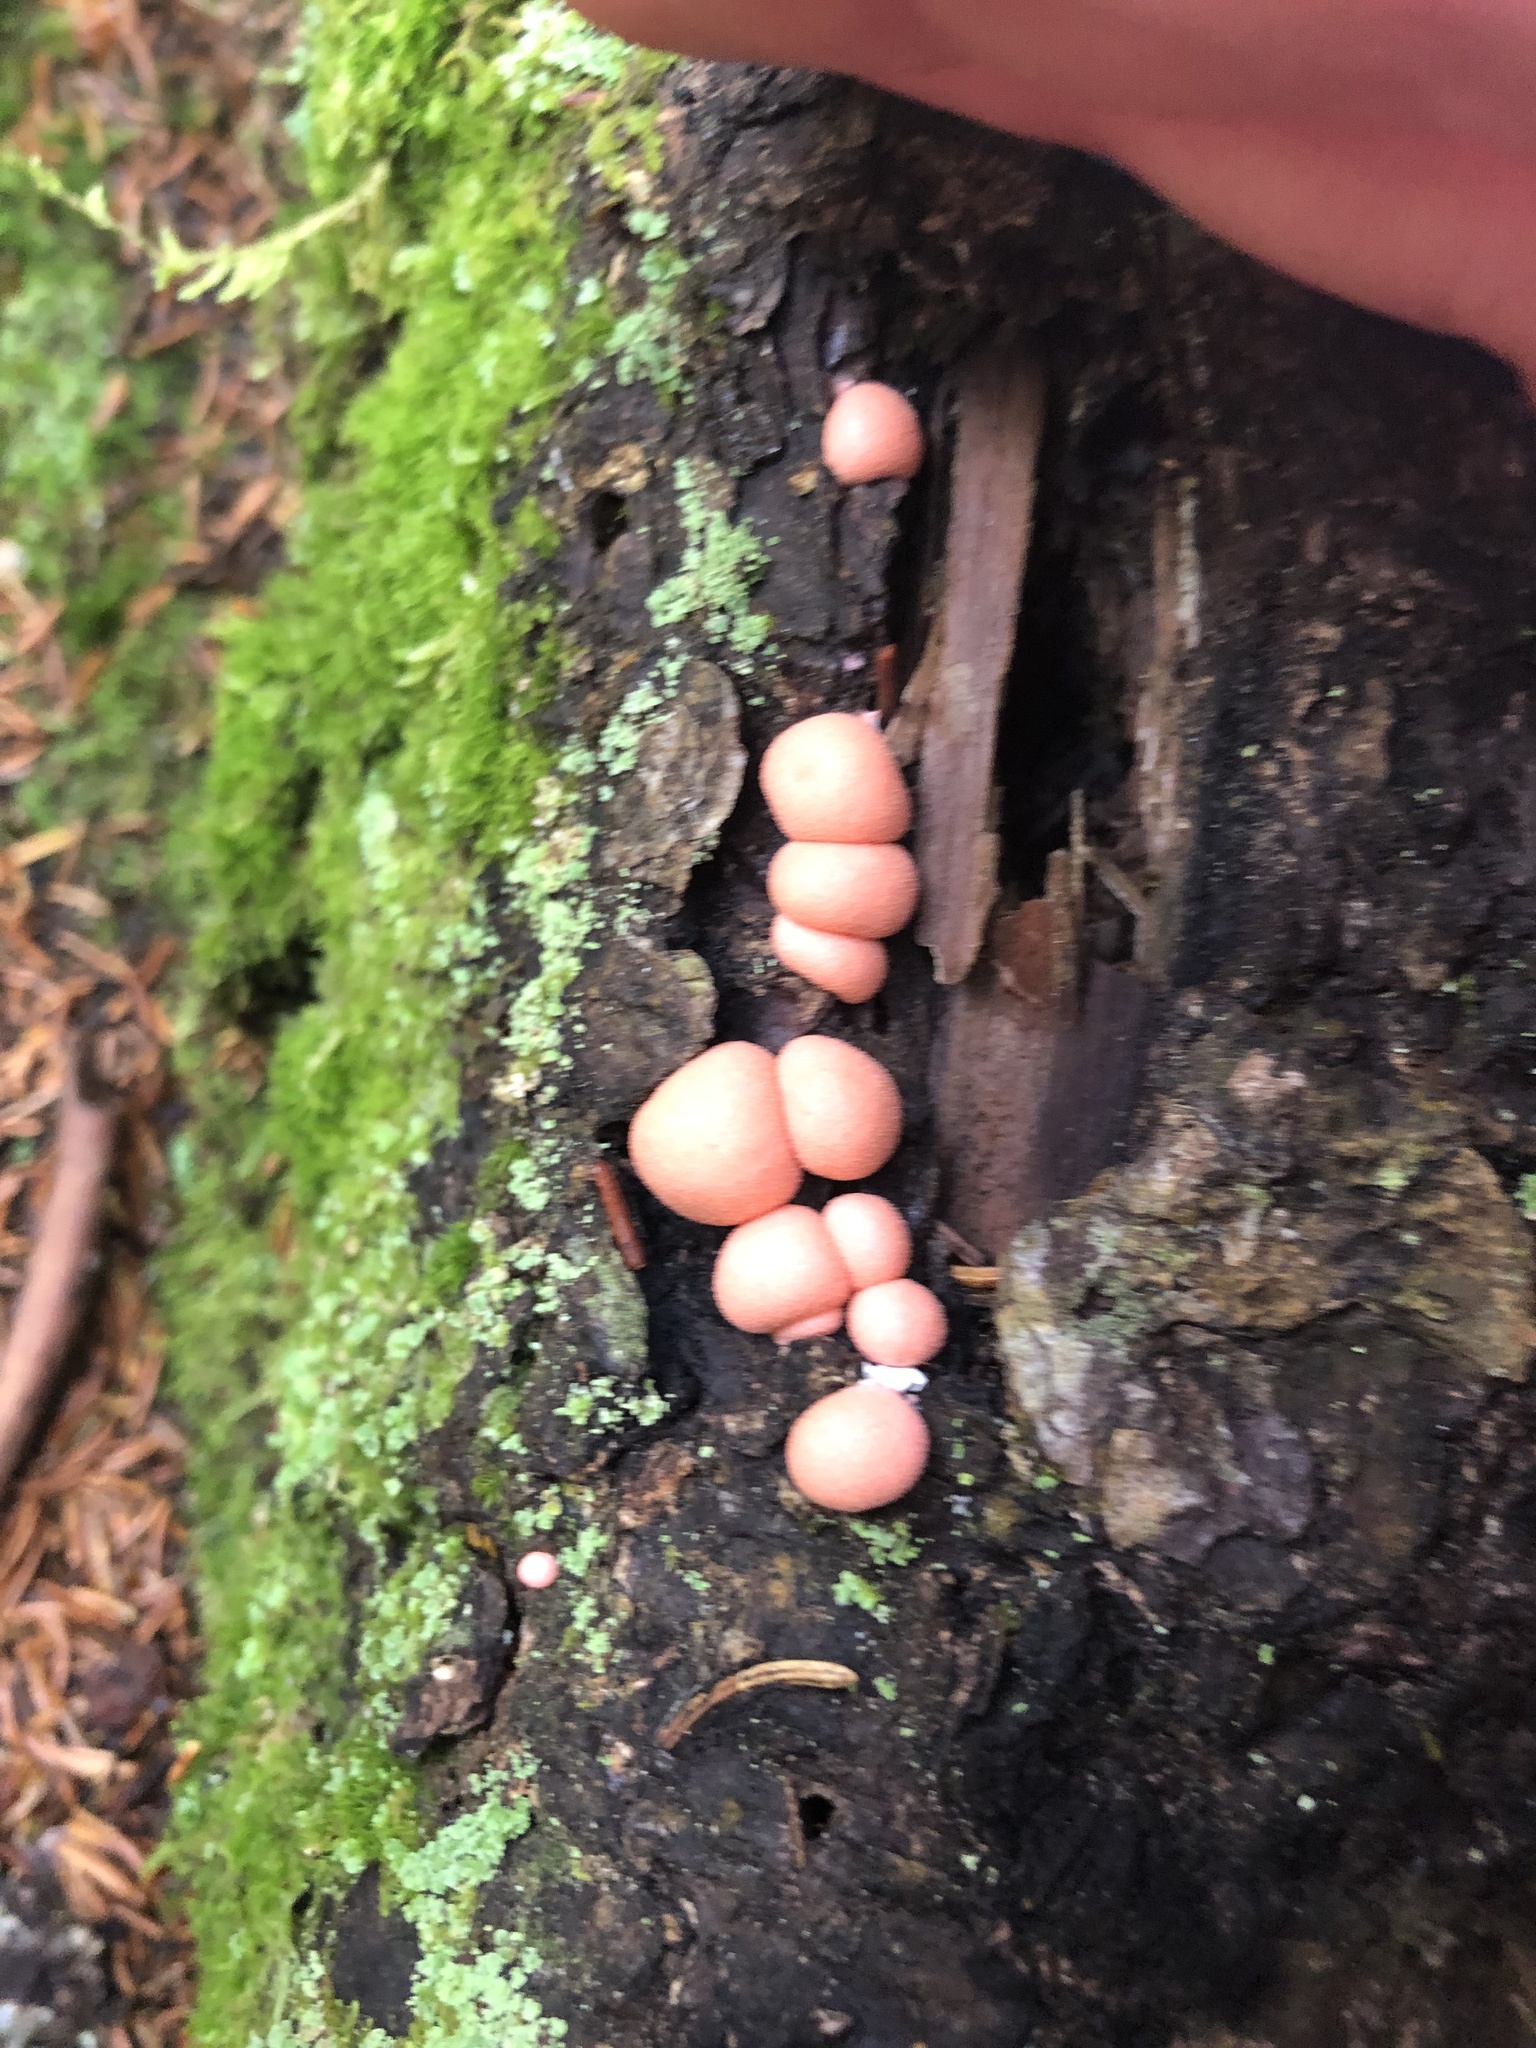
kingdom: Protozoa
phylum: Mycetozoa
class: Myxomycetes
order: Cribrariales
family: Tubiferaceae
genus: Lycogala
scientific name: Lycogala epidendrum
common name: Wolf's milk
